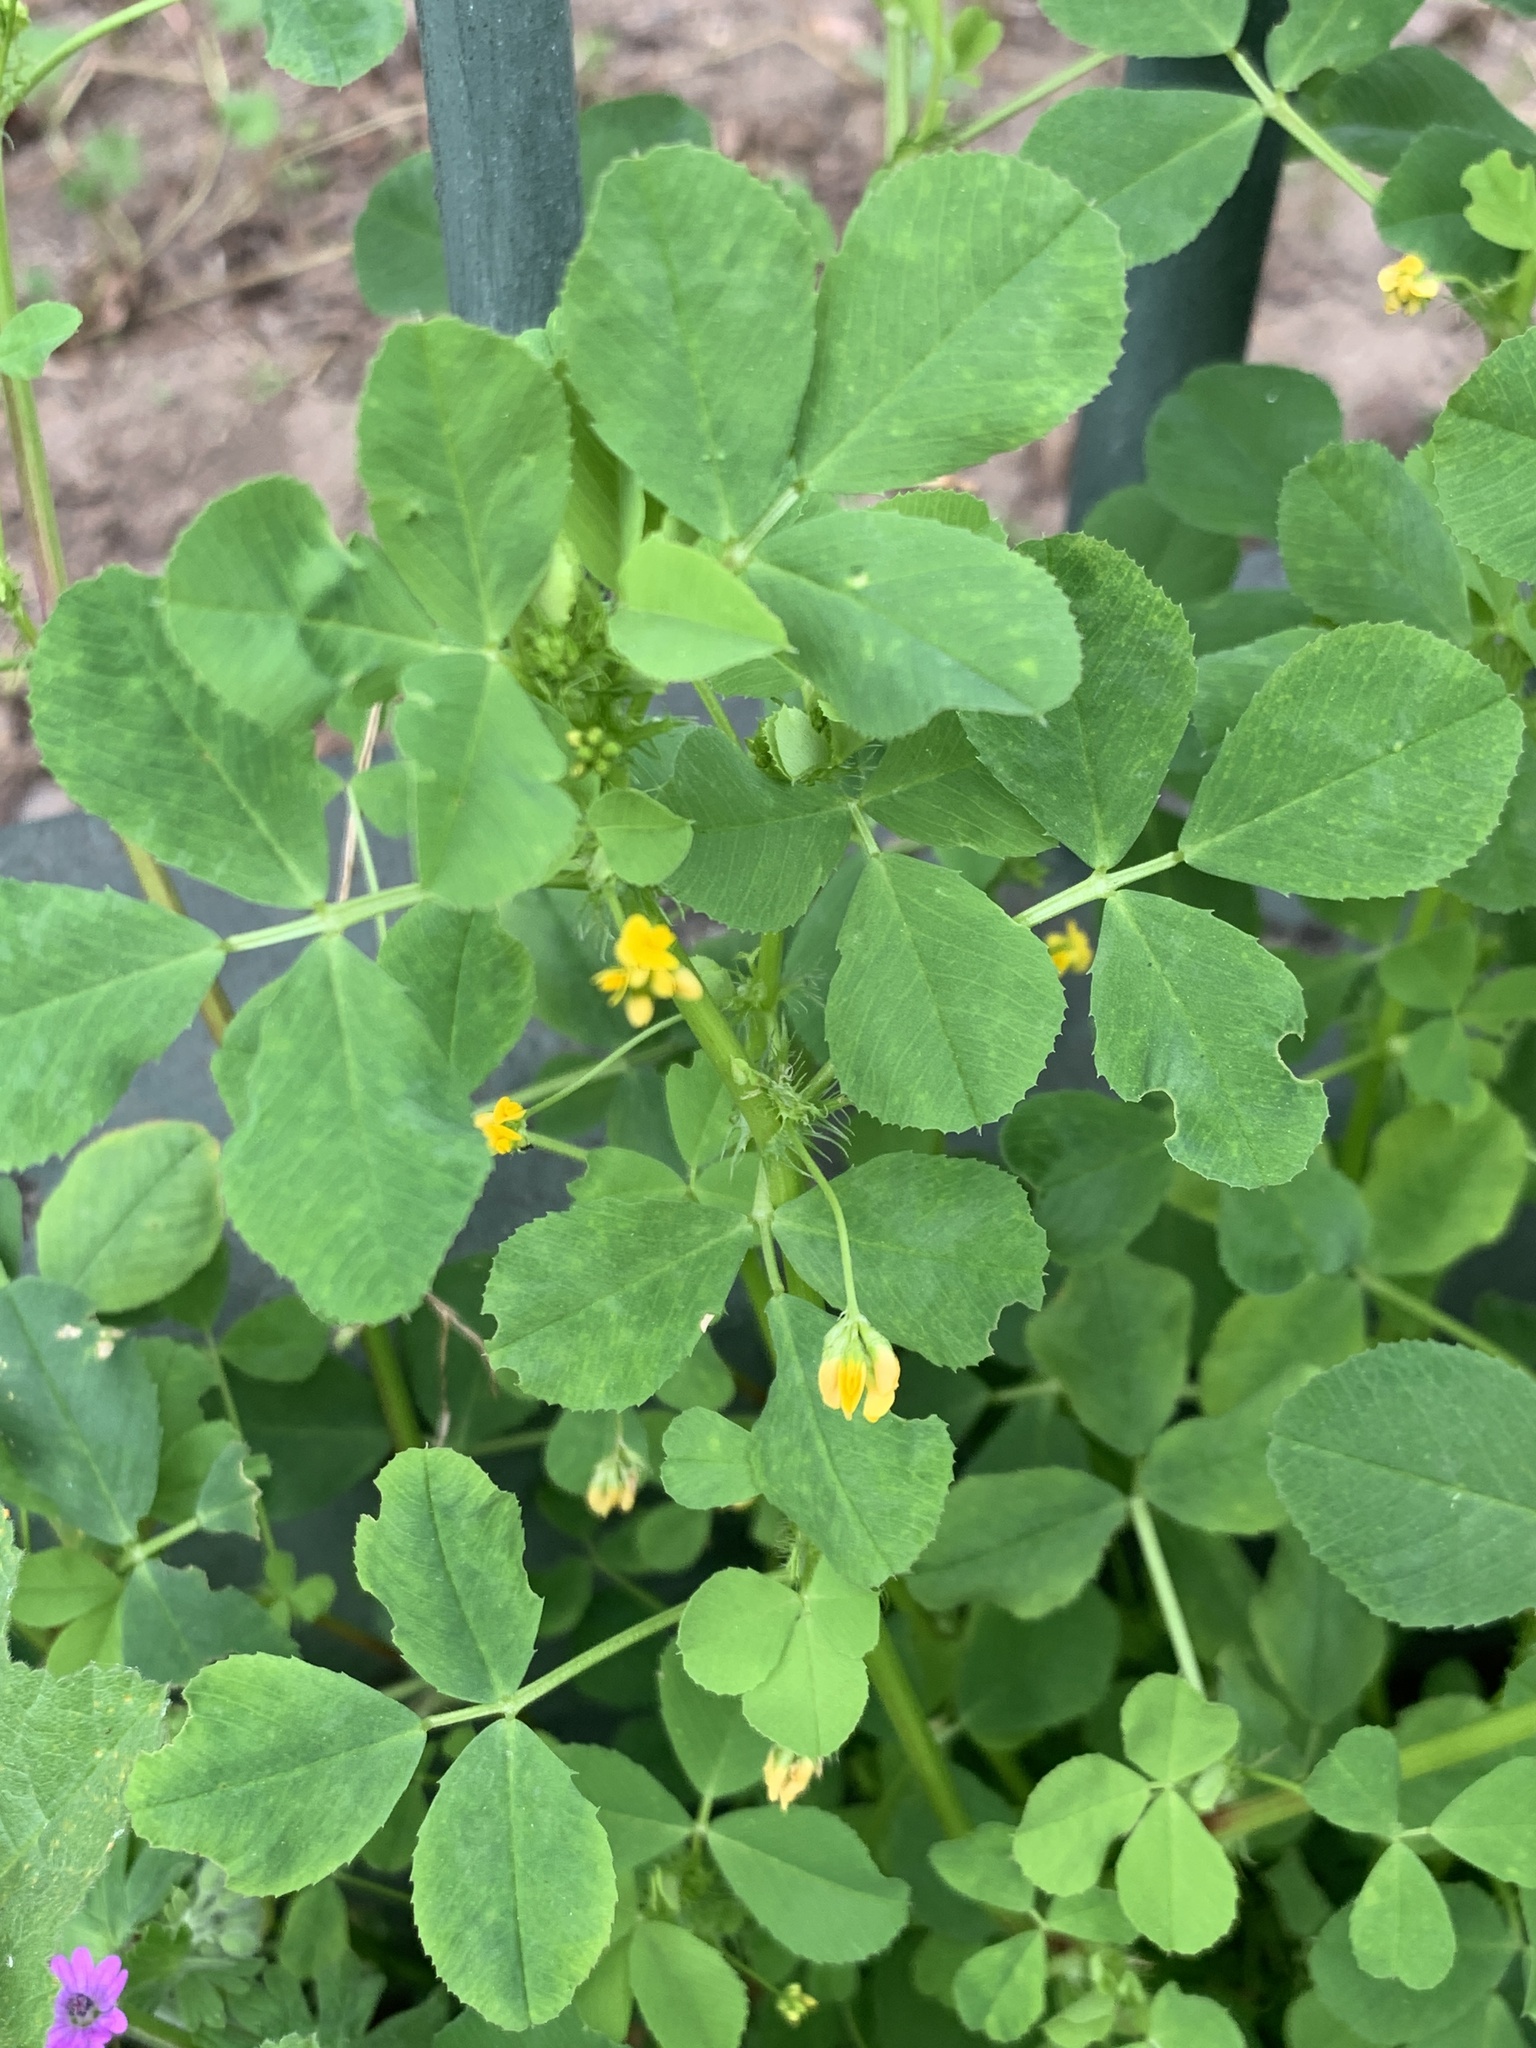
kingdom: Plantae
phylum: Tracheophyta
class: Magnoliopsida
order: Fabales
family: Fabaceae
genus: Medicago
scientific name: Medicago polymorpha
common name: Burclover
